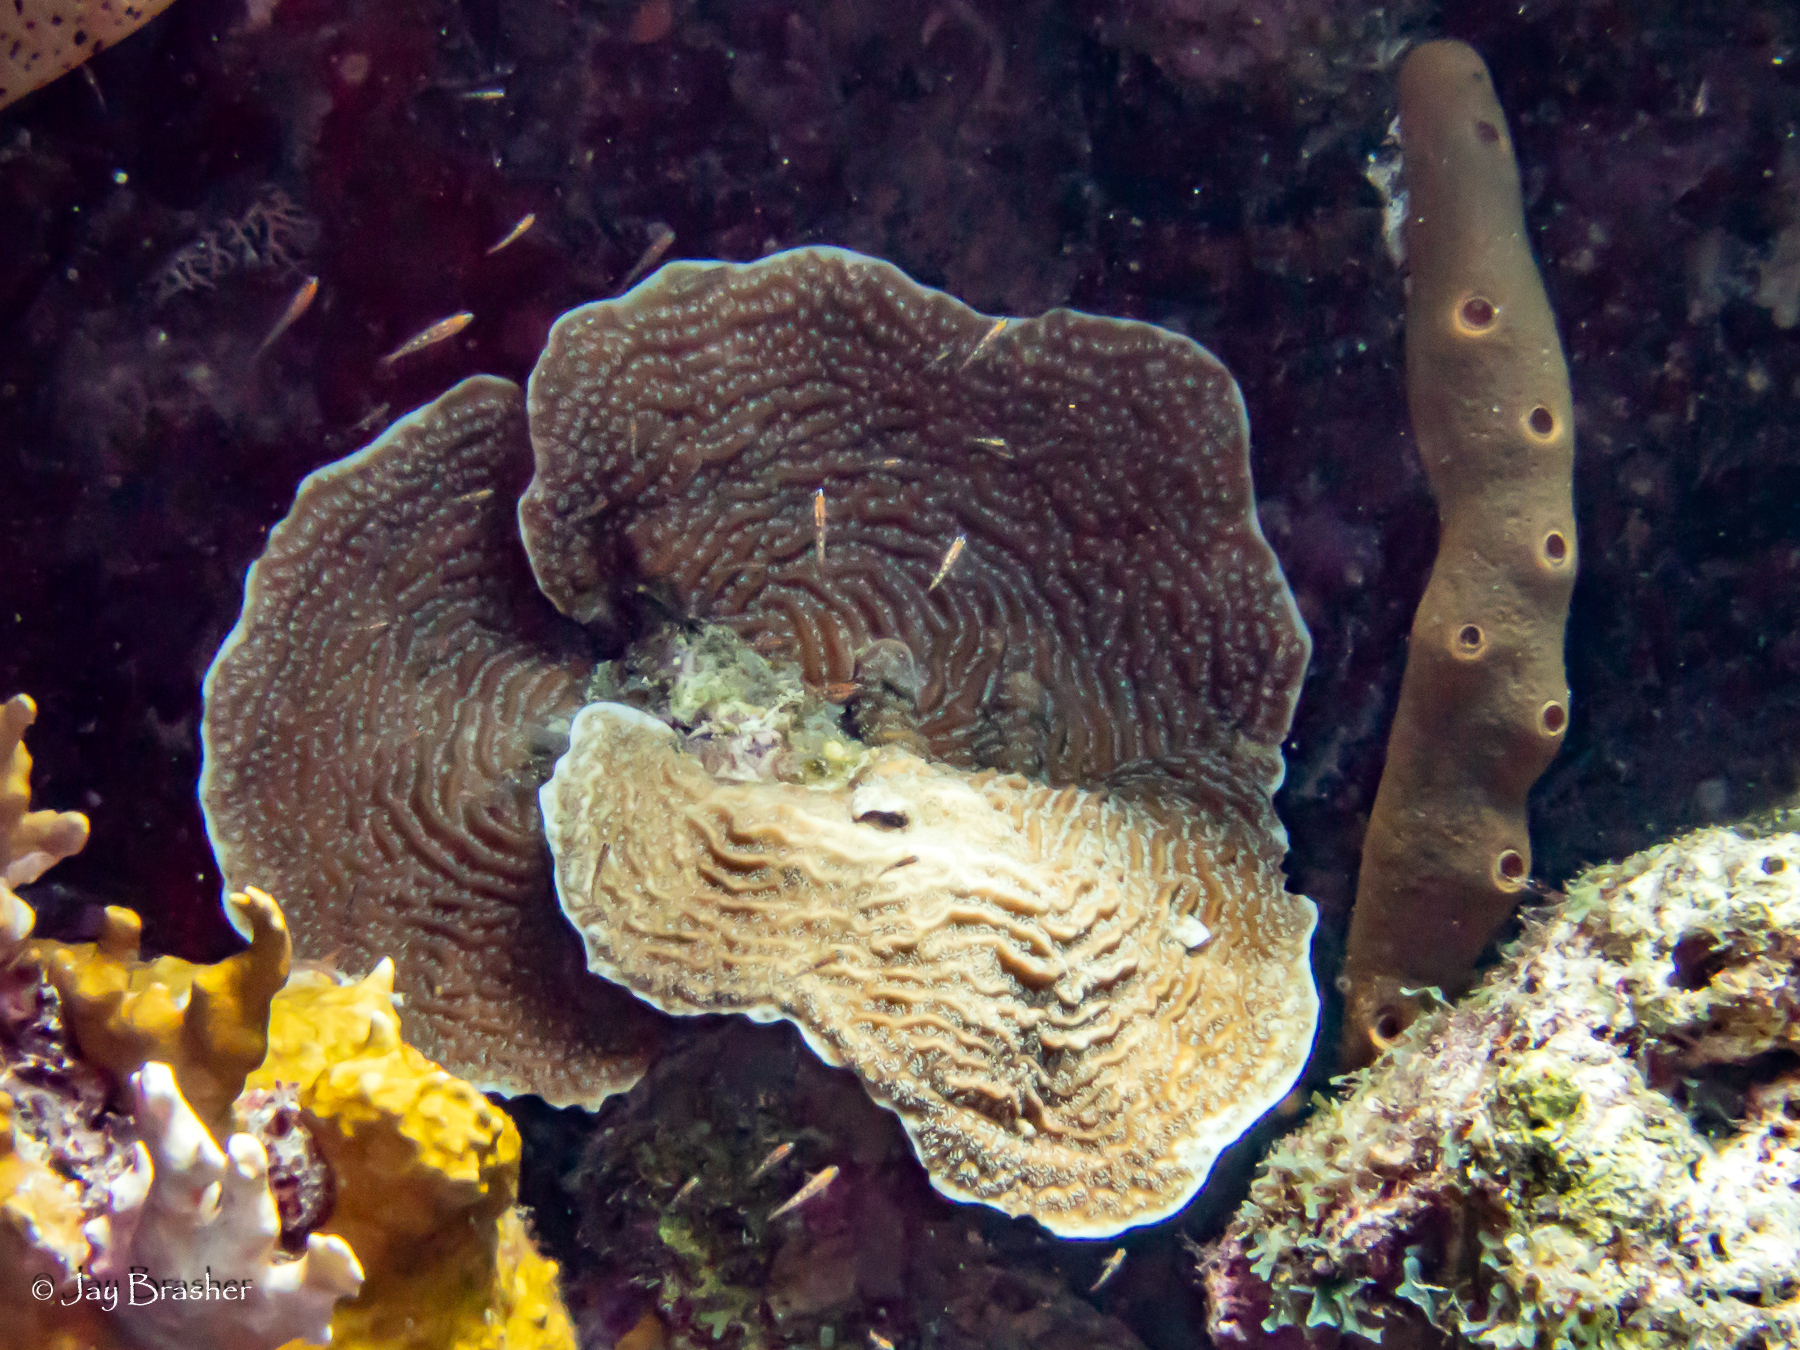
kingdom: Animalia
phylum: Cnidaria
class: Anthozoa
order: Scleractinia
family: Agariciidae
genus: Agaricia
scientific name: Agaricia lamarcki
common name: Lamarck's sheet coral
